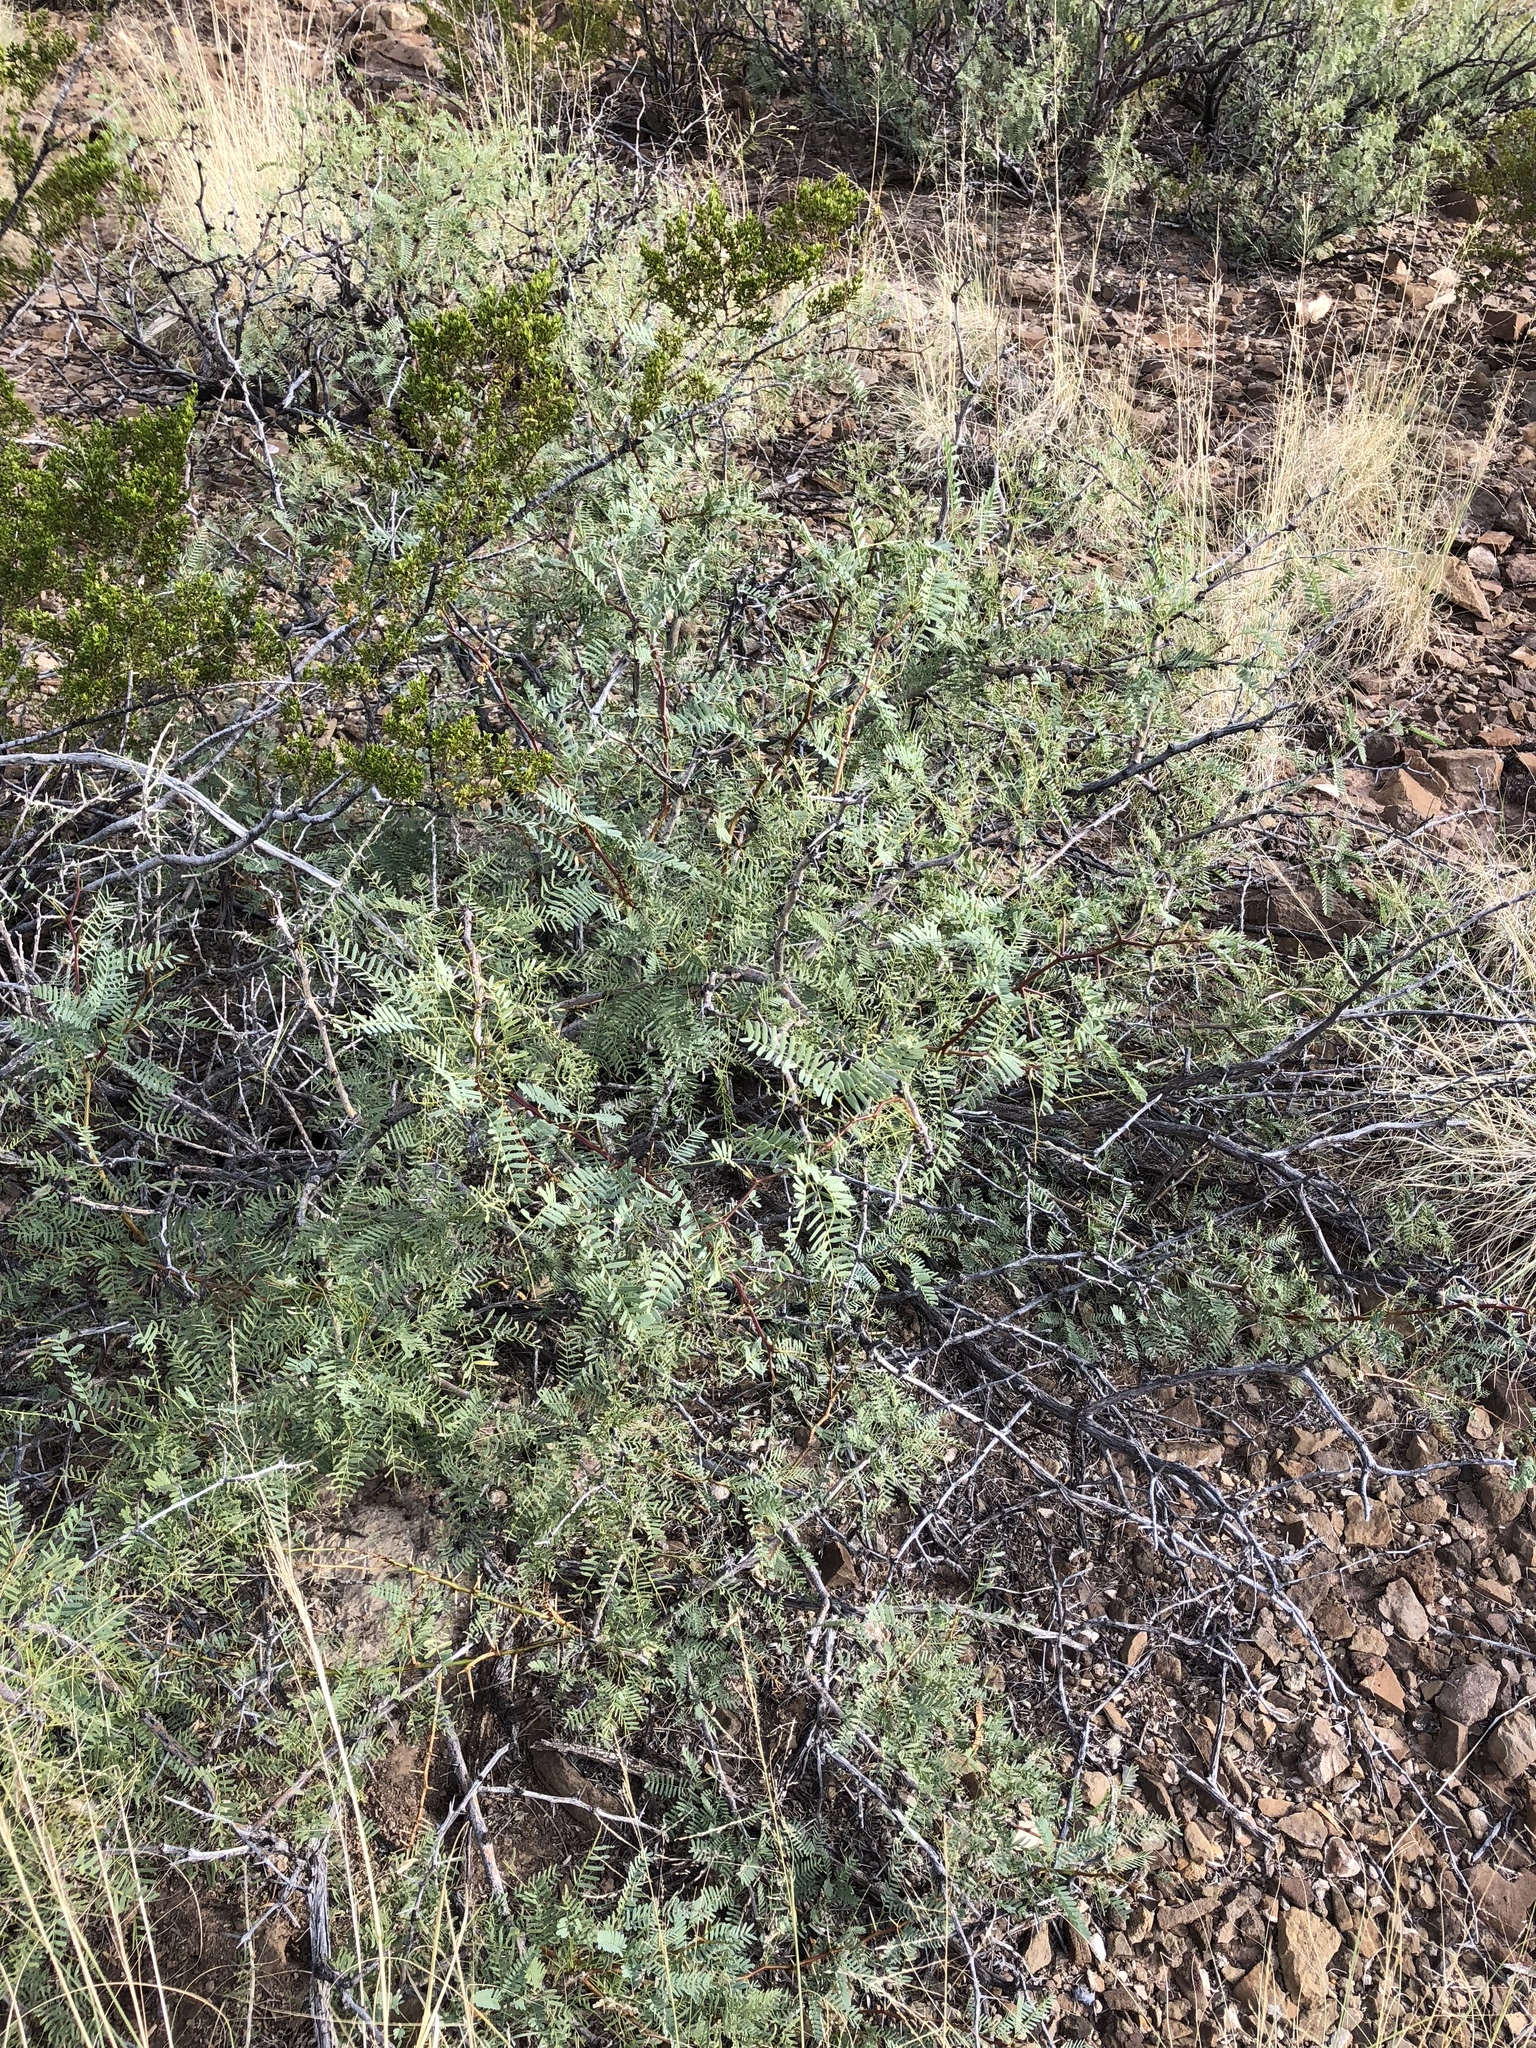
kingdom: Plantae
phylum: Tracheophyta
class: Magnoliopsida
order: Fabales
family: Fabaceae
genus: Prosopis
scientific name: Prosopis glandulosa
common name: Honey mesquite
